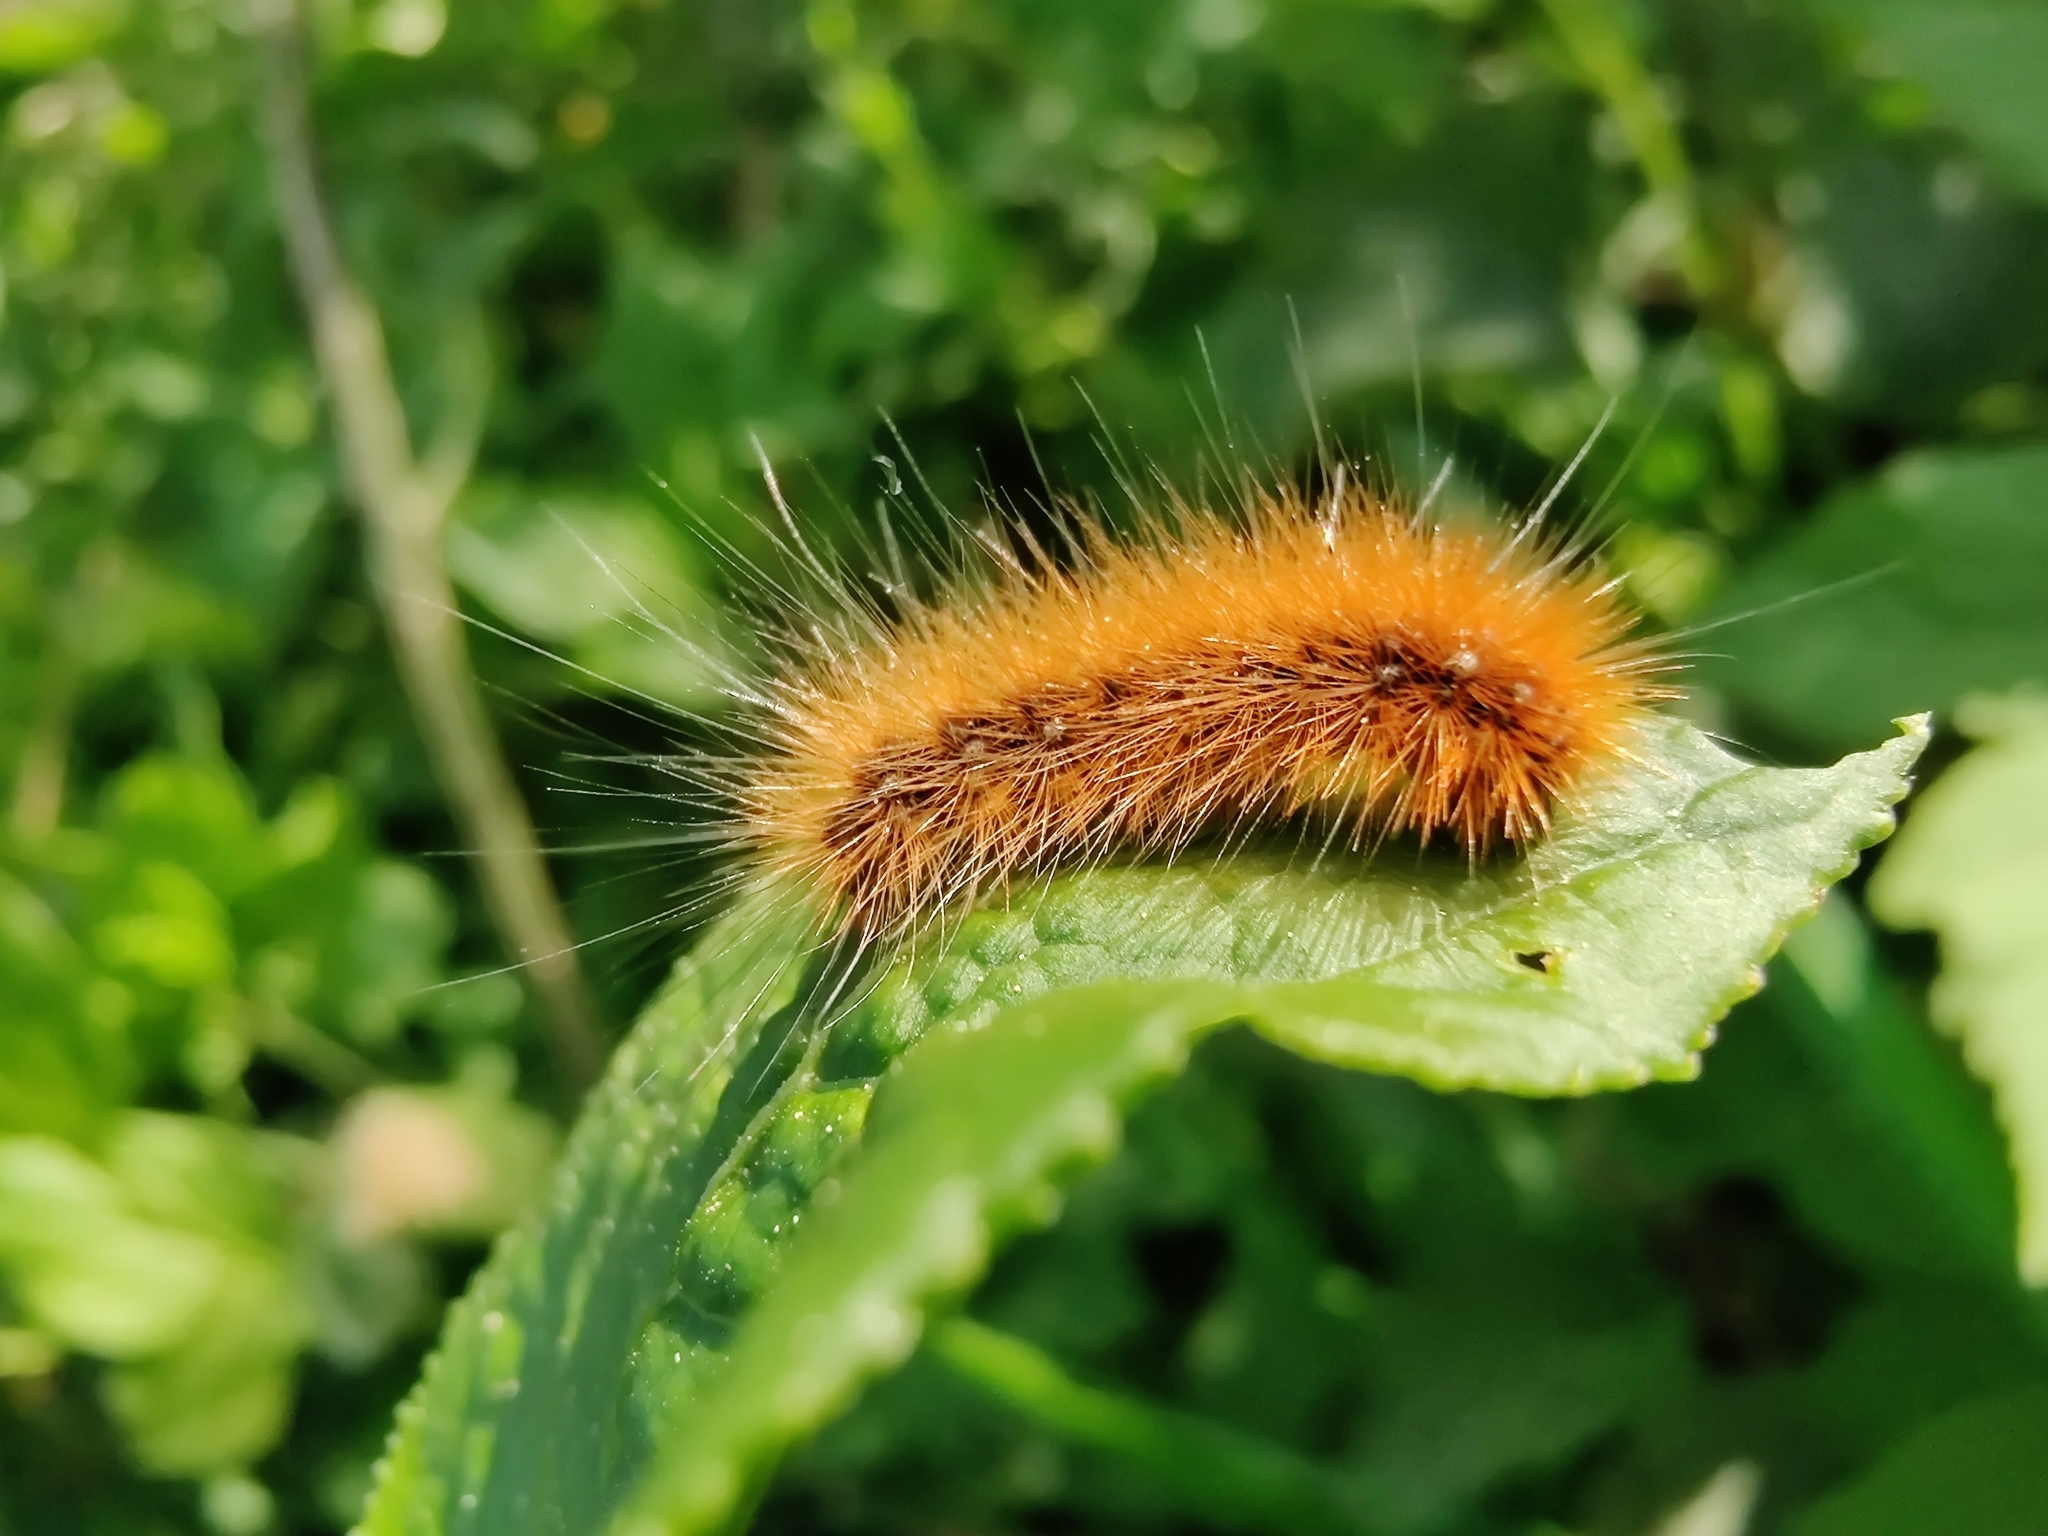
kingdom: Animalia
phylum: Arthropoda
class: Insecta
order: Lepidoptera
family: Erebidae
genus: Arctia
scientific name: Arctia caja
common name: Garden tiger
